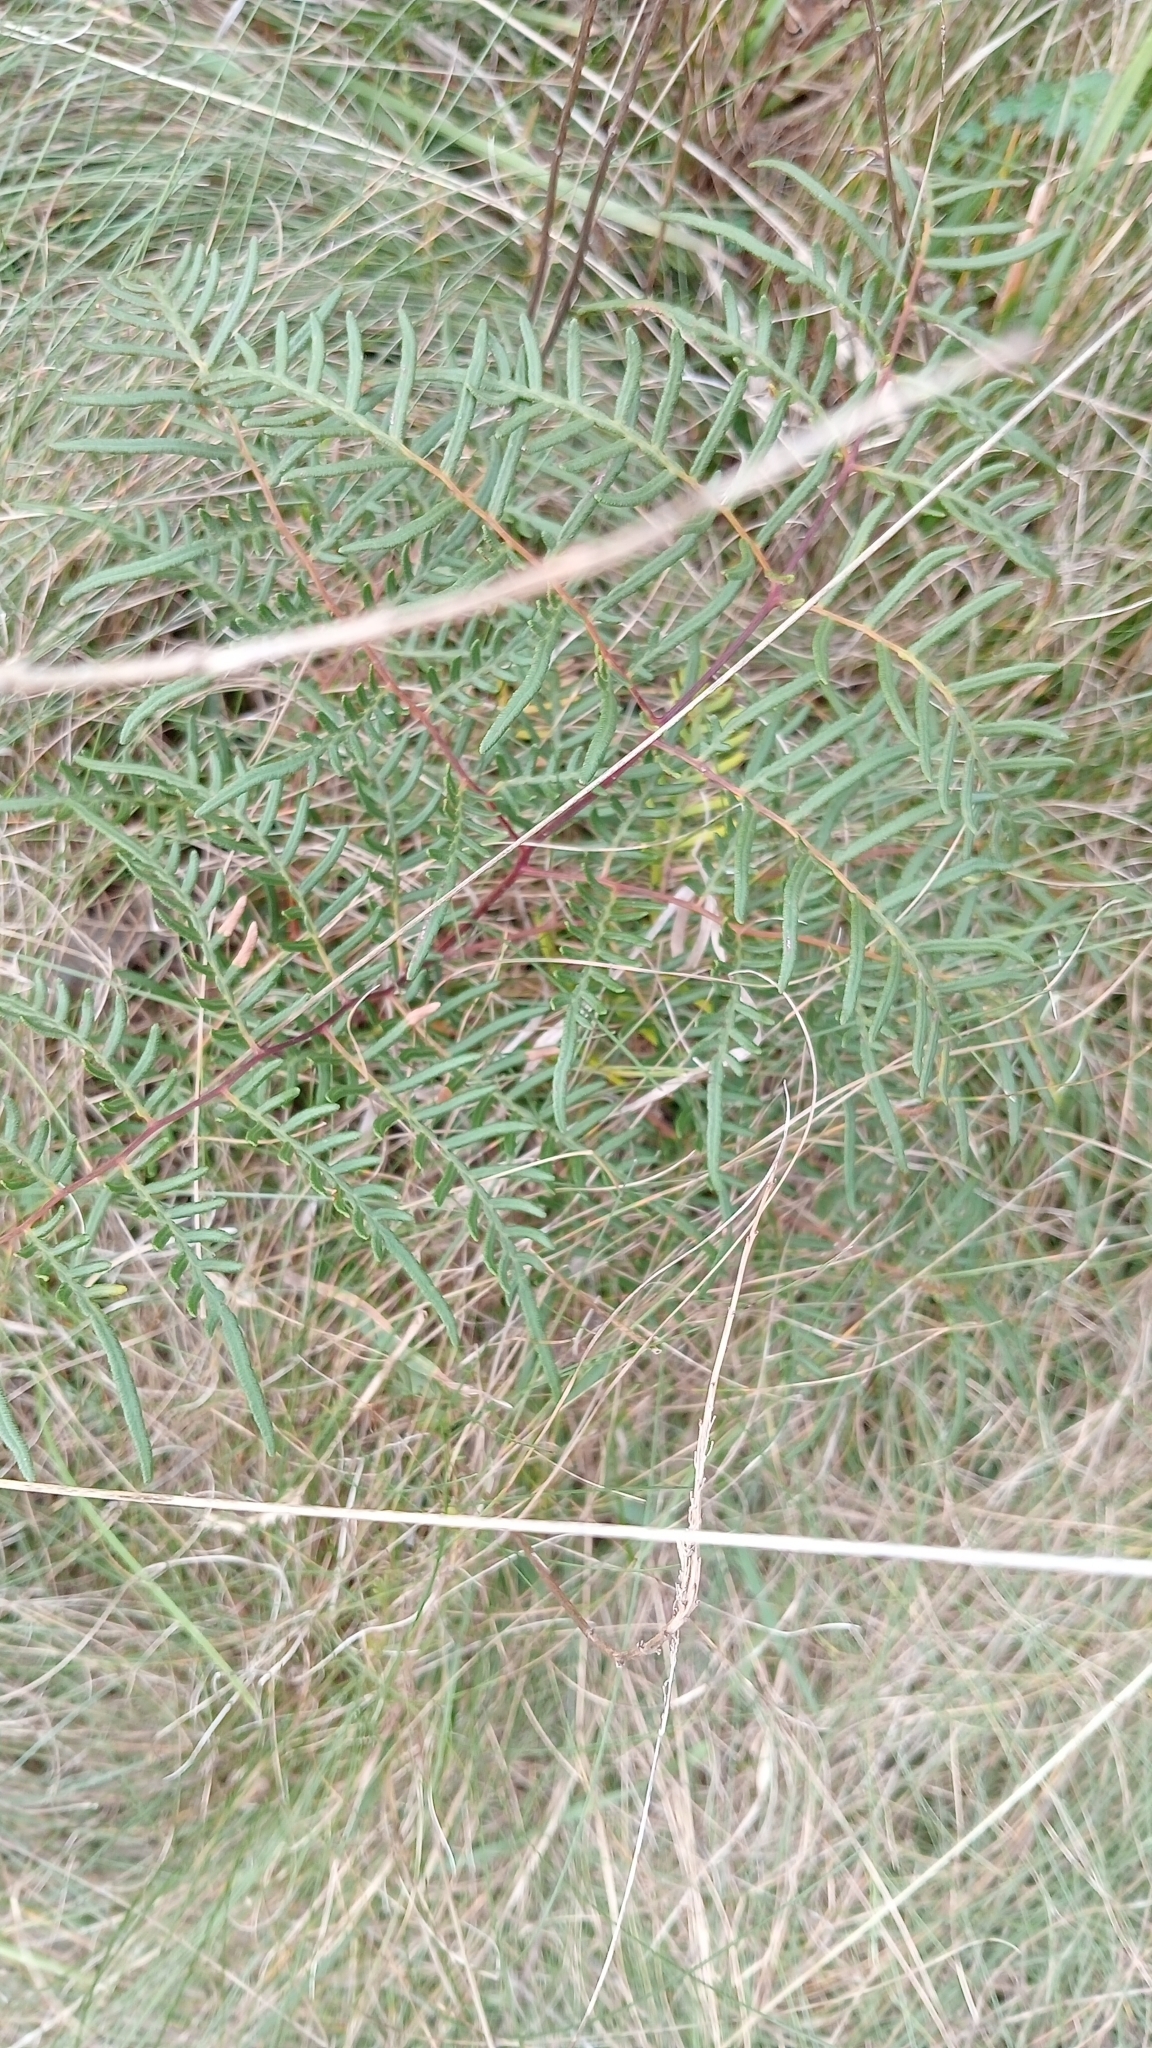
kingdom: Plantae
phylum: Tracheophyta
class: Polypodiopsida
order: Polypodiales
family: Dennstaedtiaceae
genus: Pteridium
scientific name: Pteridium esculentum
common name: Bracken fern
